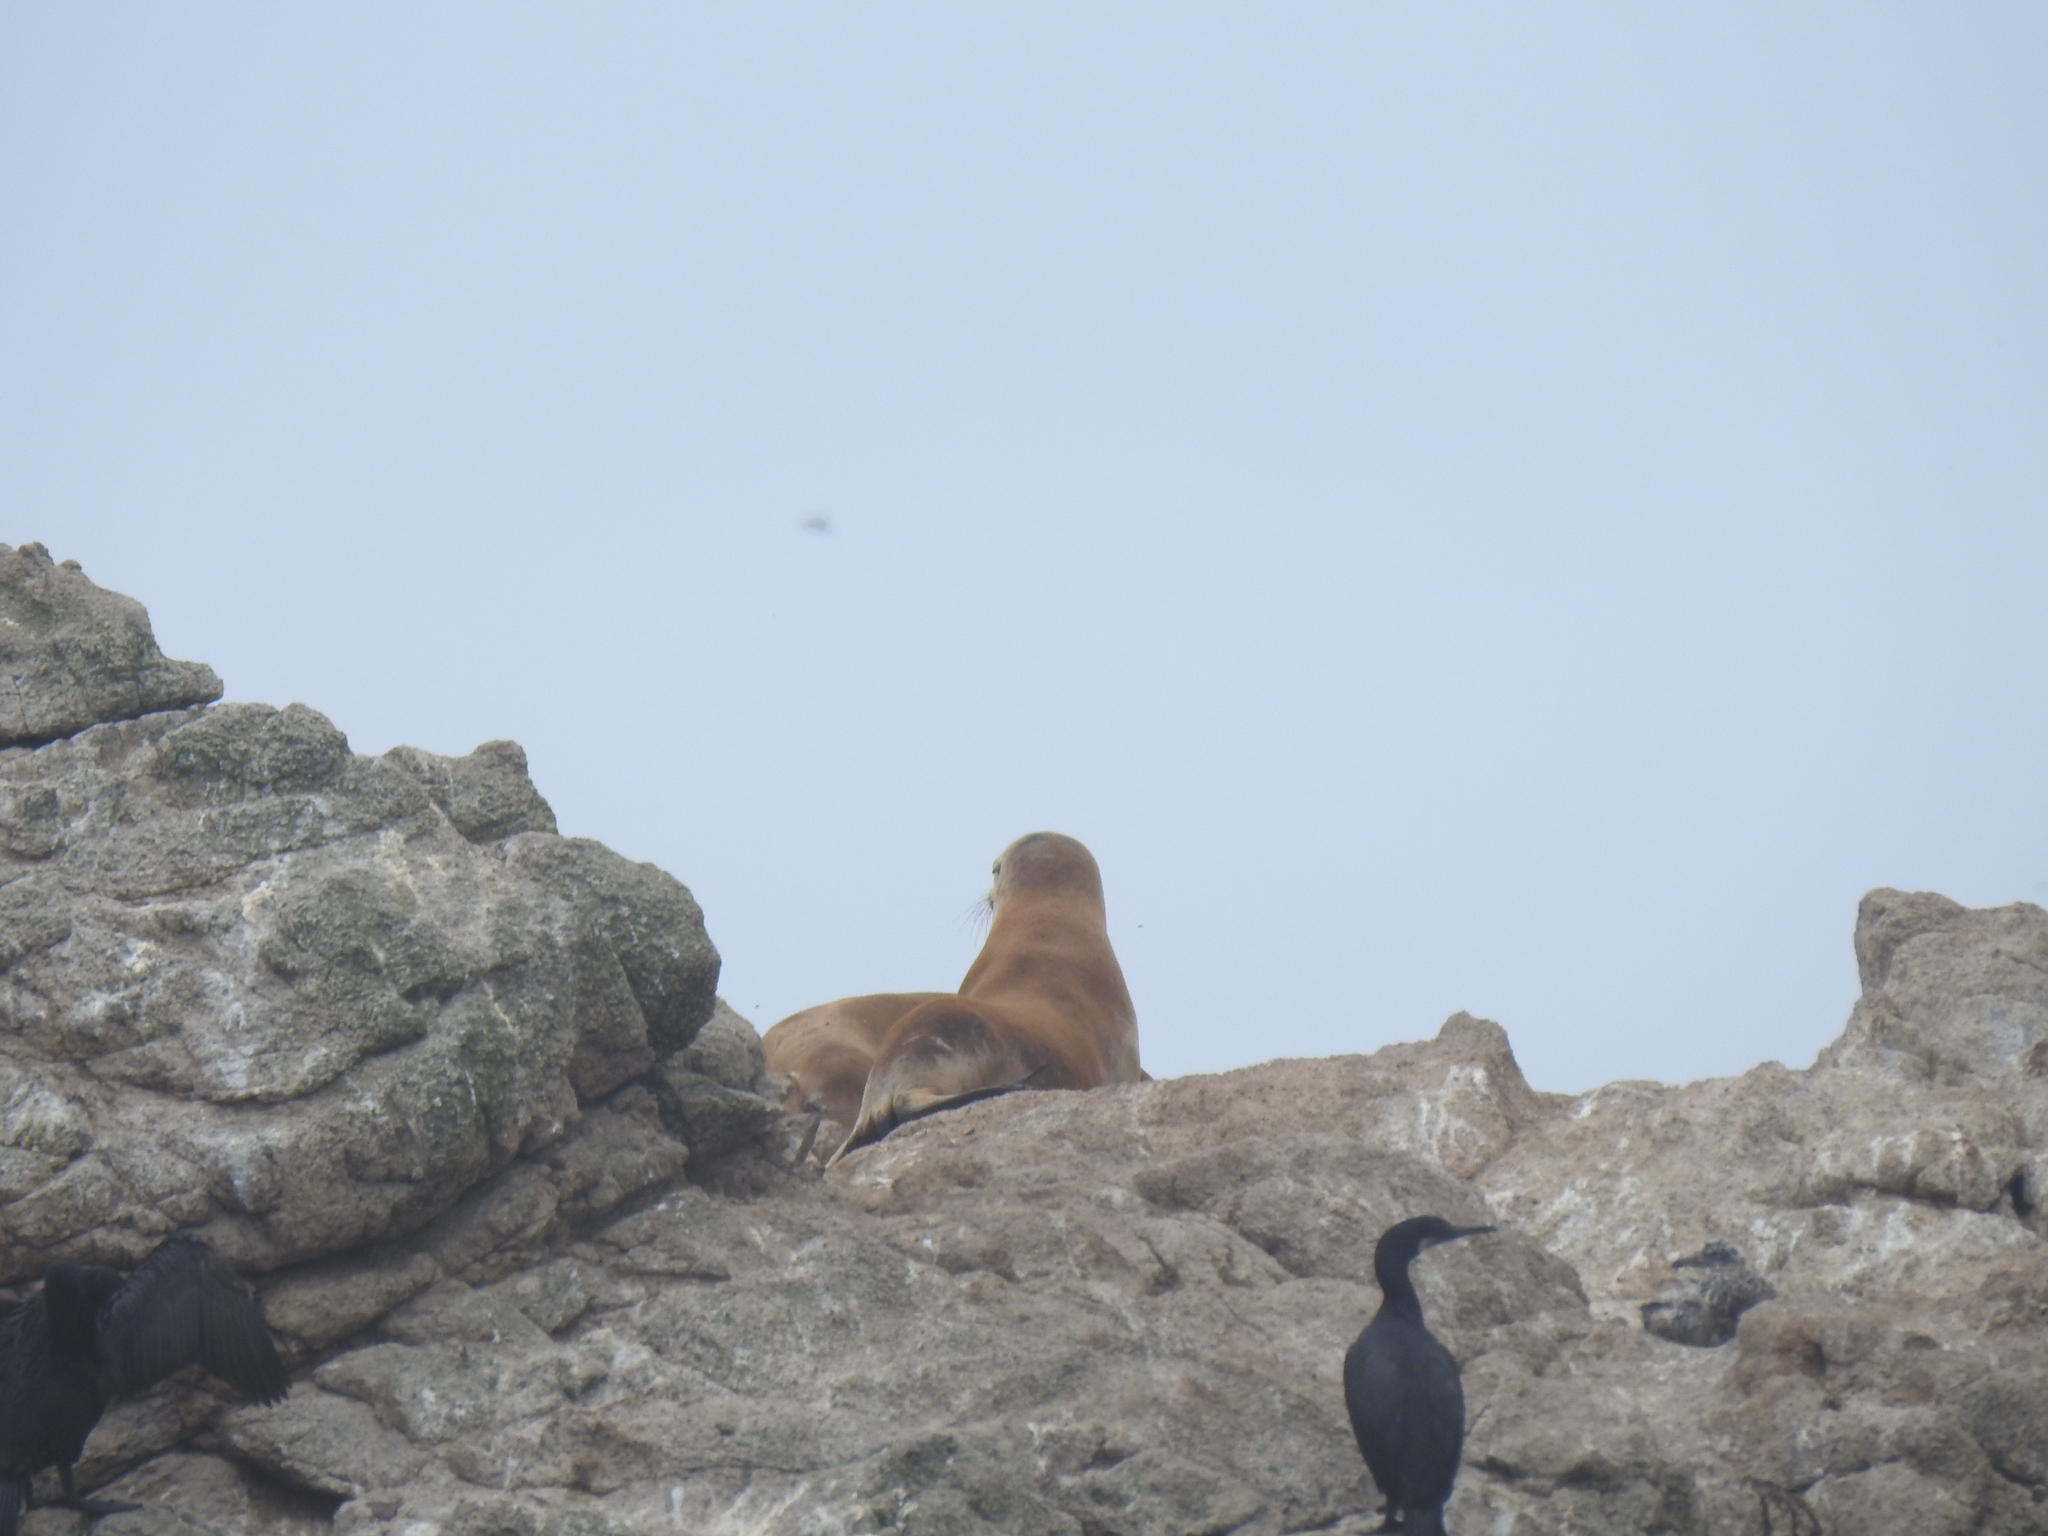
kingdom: Animalia
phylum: Chordata
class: Mammalia
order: Carnivora
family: Otariidae
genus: Zalophus
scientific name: Zalophus californianus
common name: California sea lion
